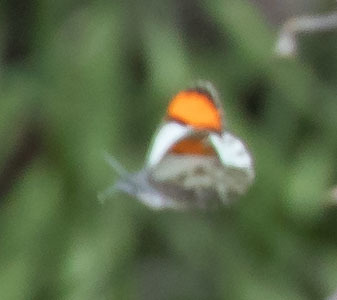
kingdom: Animalia
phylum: Arthropoda
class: Insecta
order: Lepidoptera
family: Pieridae
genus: Anthocharis
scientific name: Anthocharis sara
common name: Sara's orangetip
